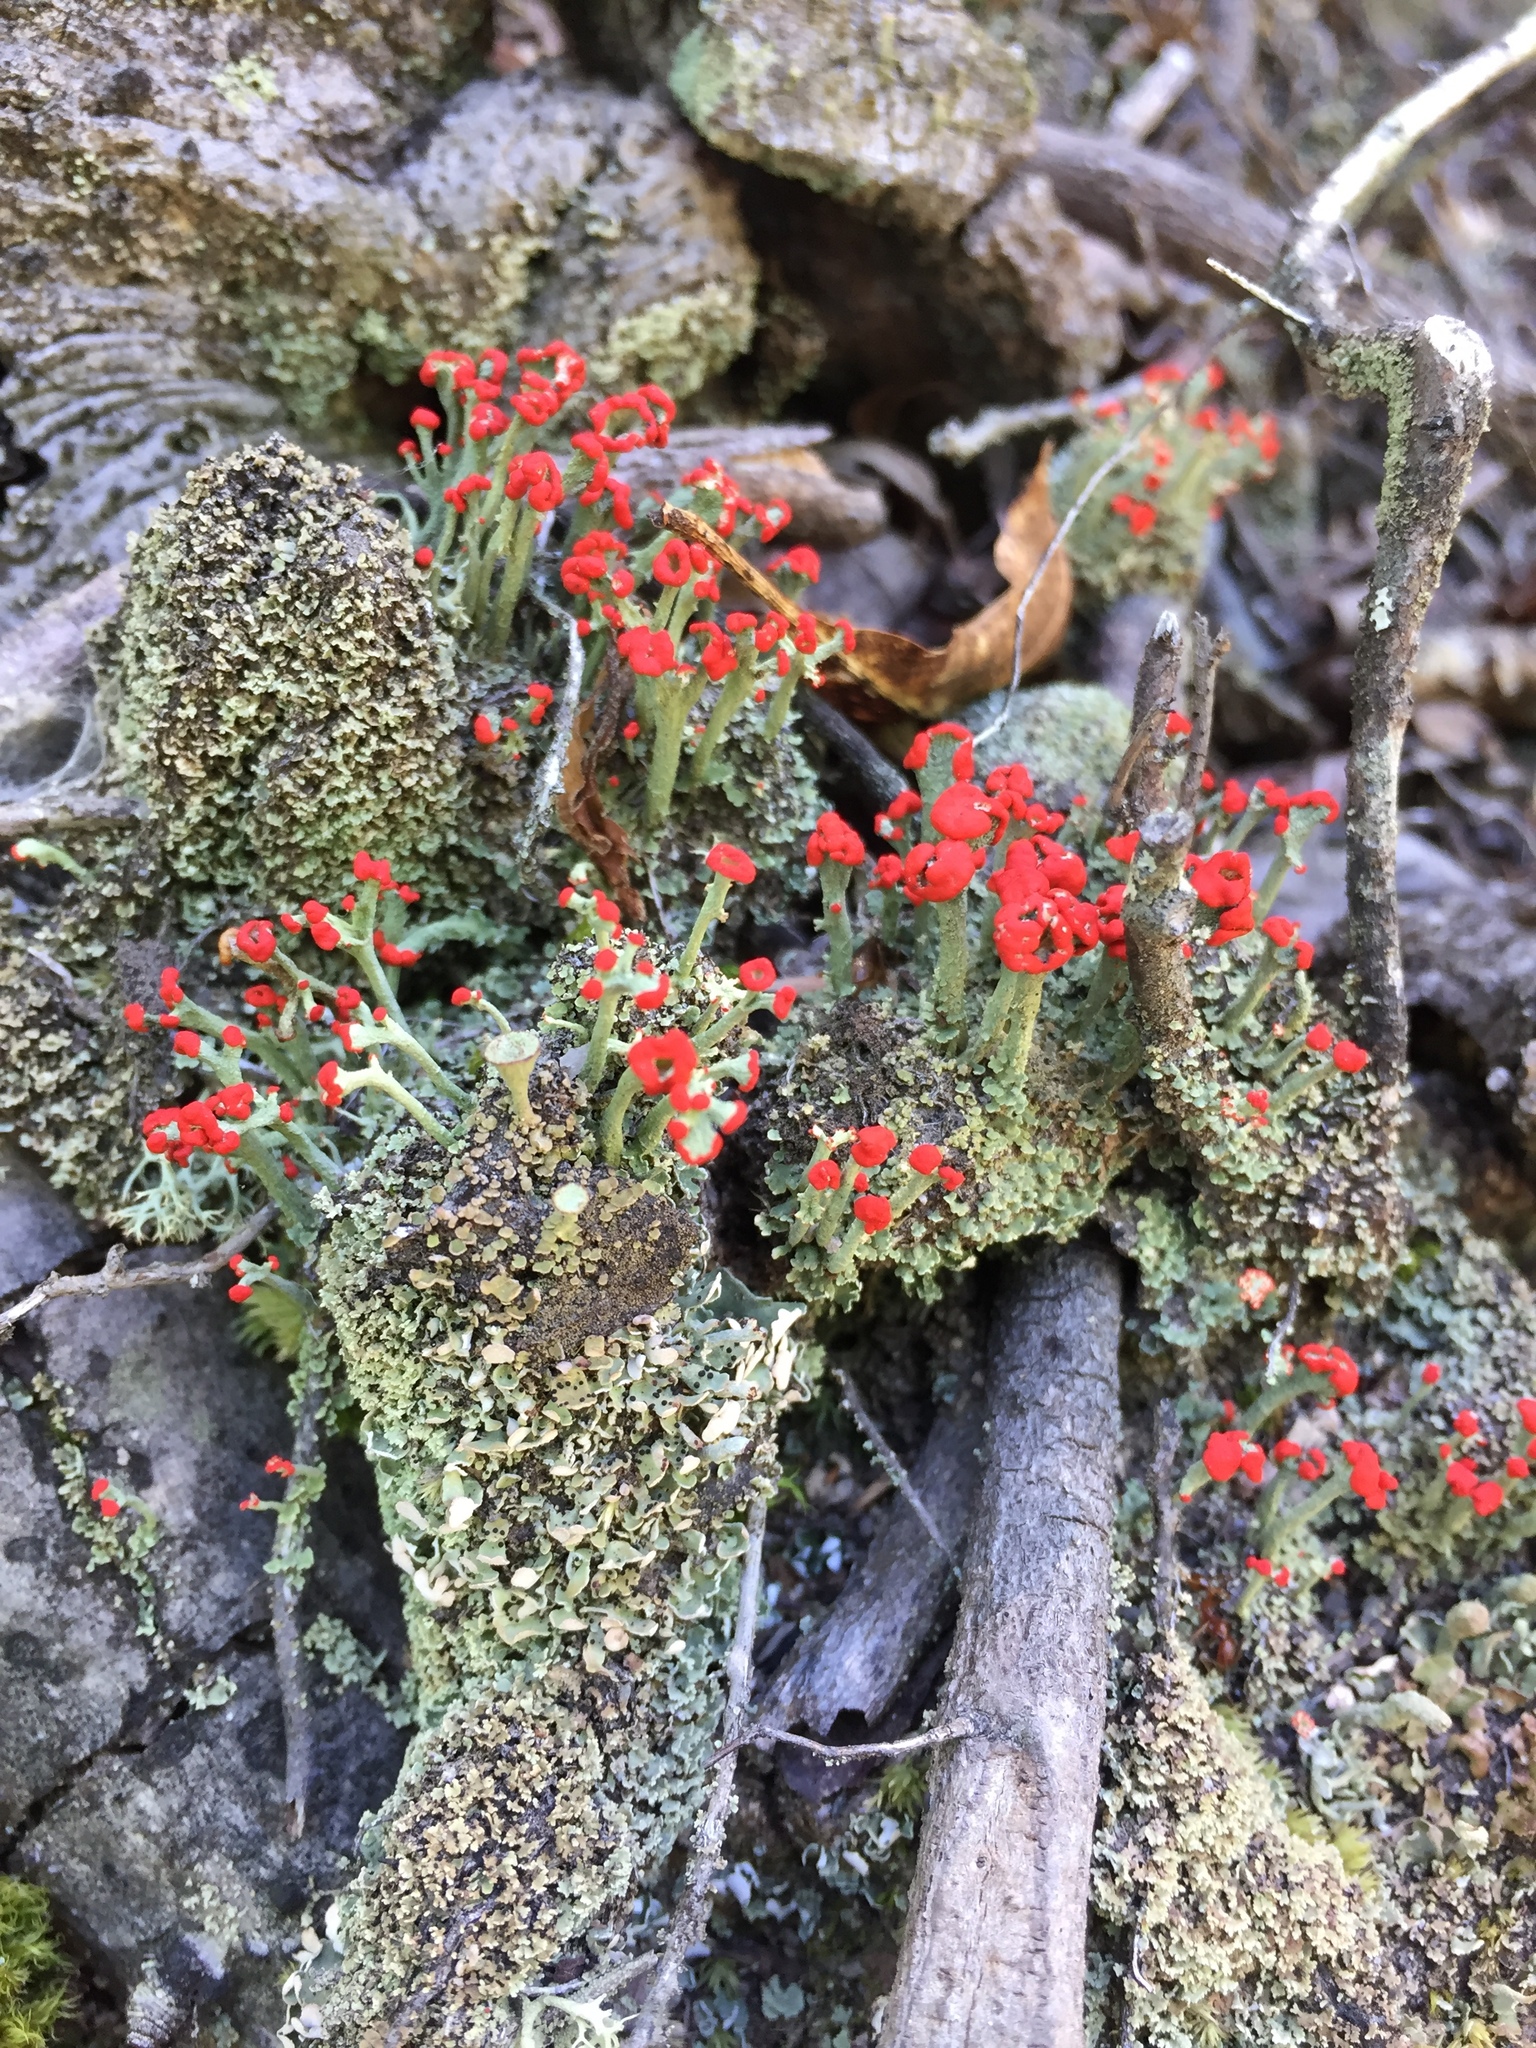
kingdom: Fungi
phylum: Ascomycota
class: Lecanoromycetes
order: Lecanorales
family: Cladoniaceae
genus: Cladonia
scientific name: Cladonia cristatella
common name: British soldier lichen
